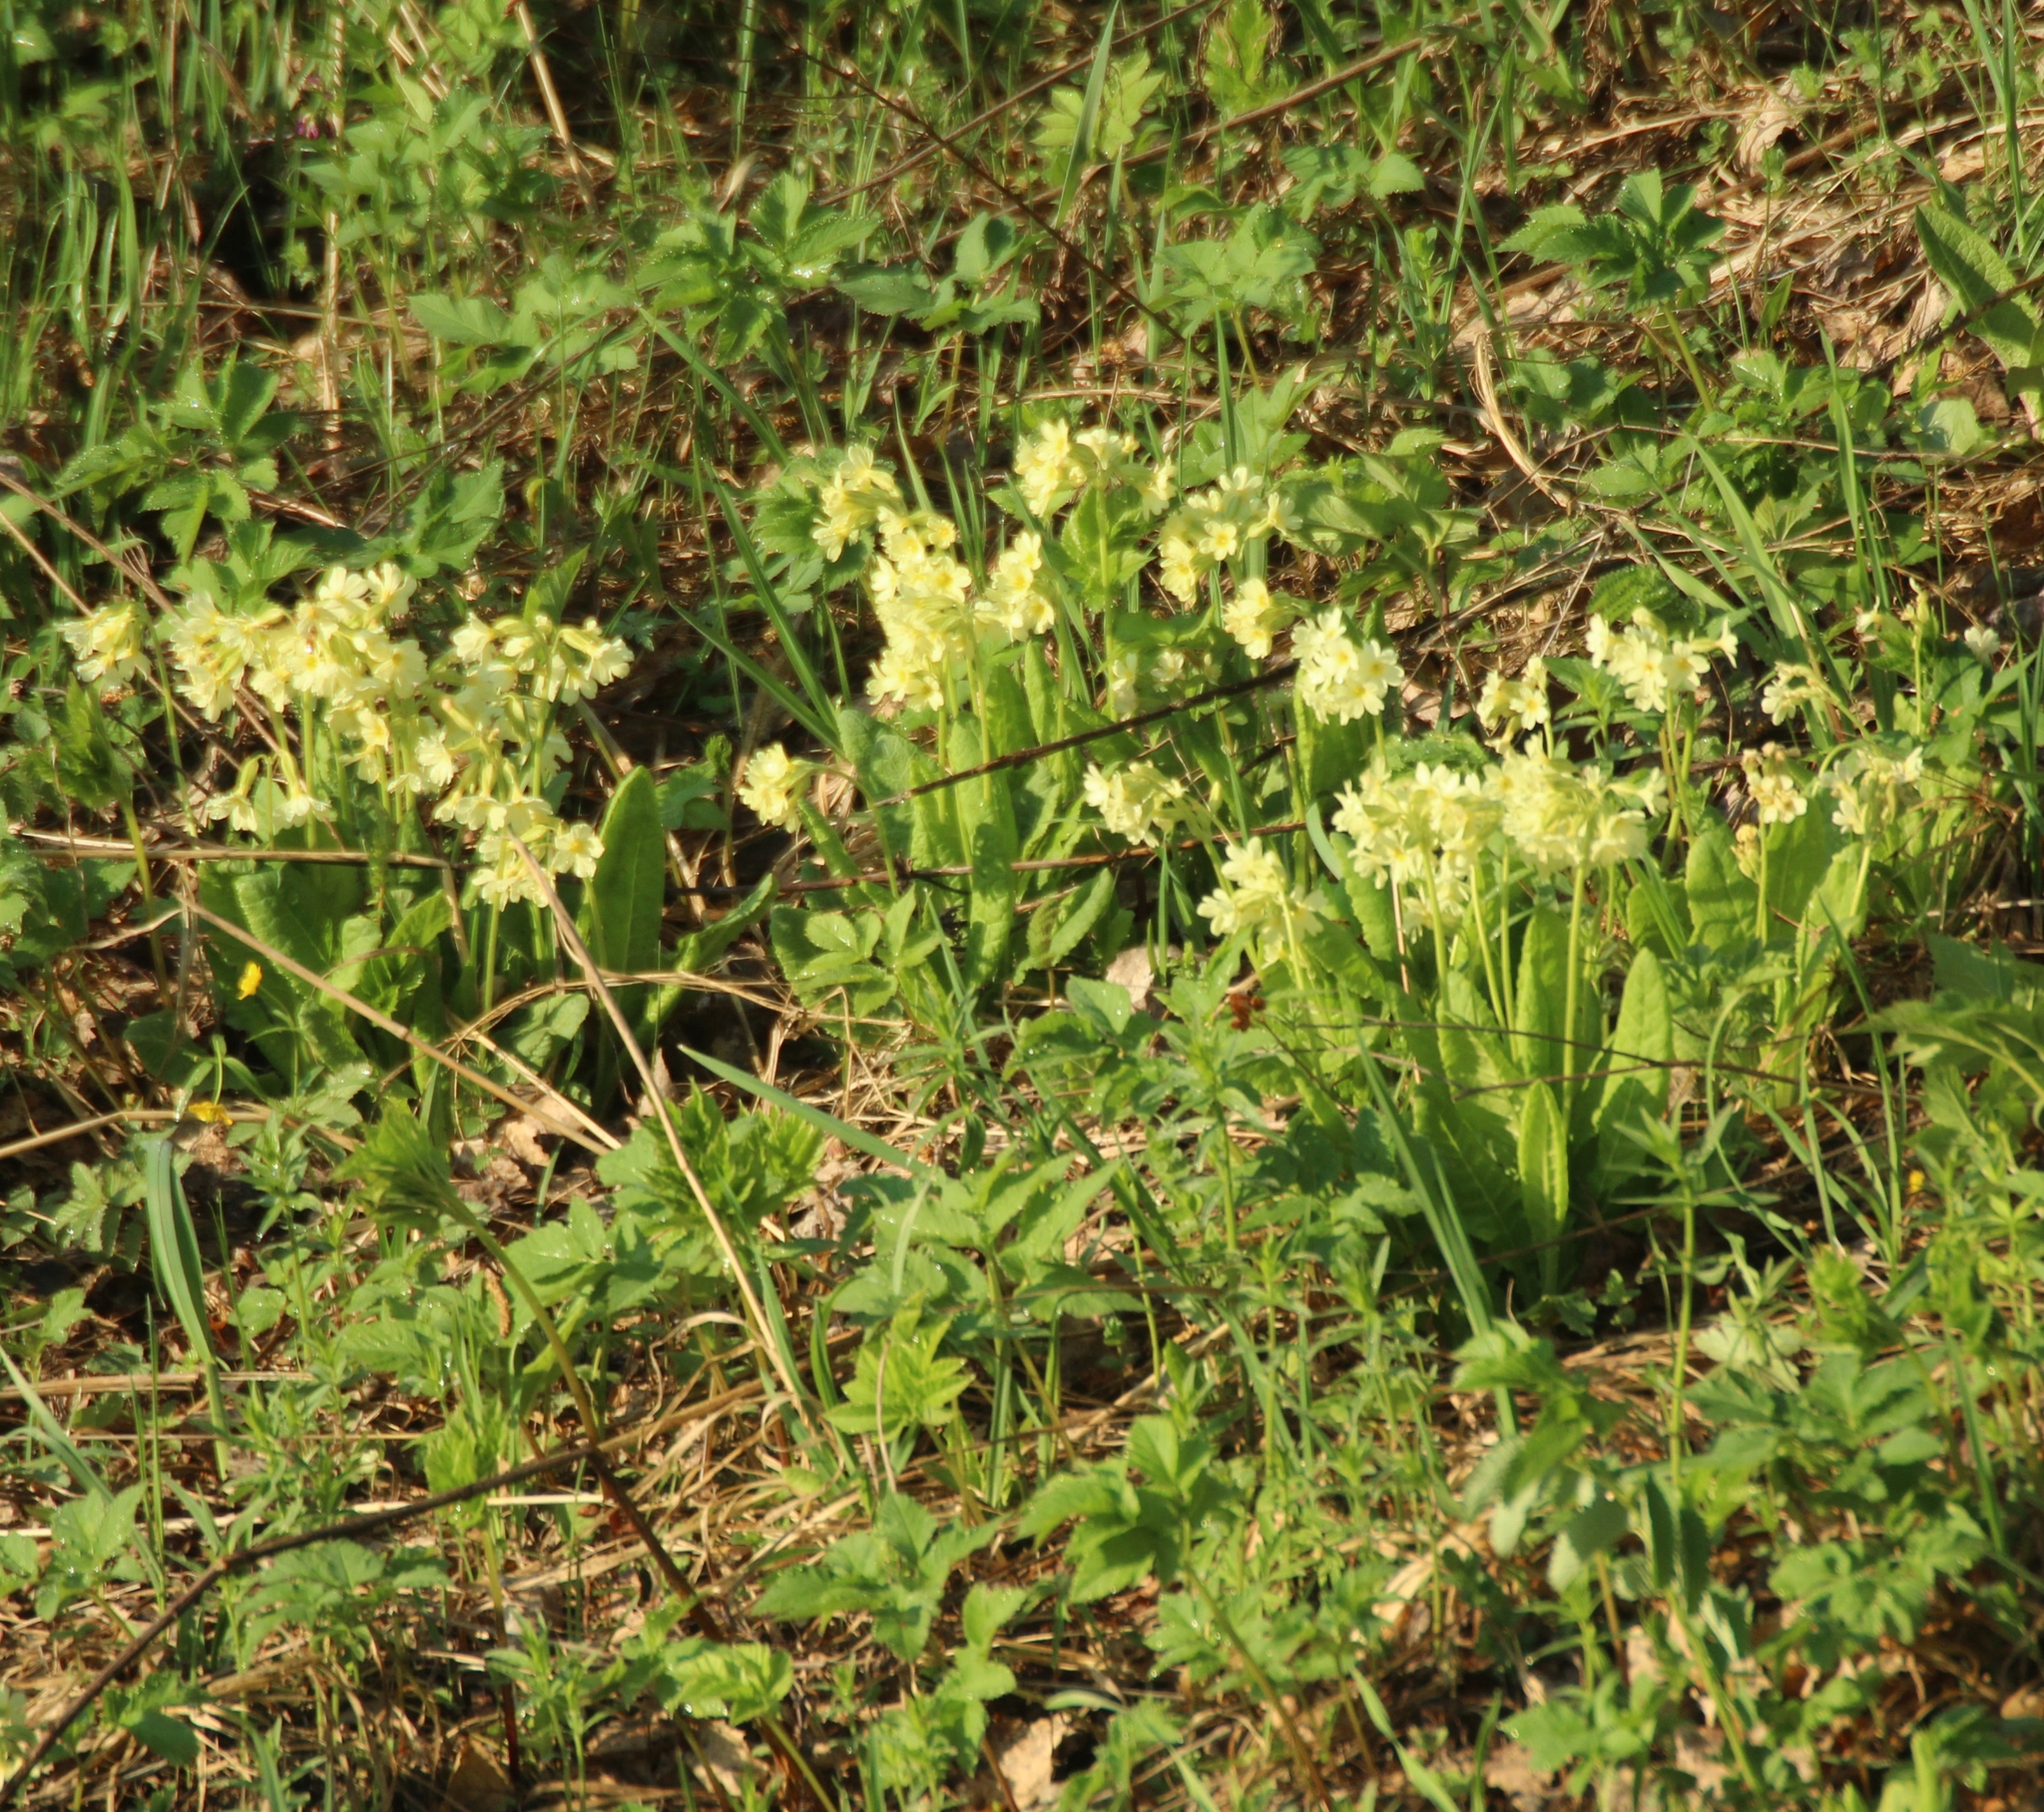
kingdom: Plantae
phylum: Tracheophyta
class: Magnoliopsida
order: Ericales
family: Primulaceae
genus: Primula
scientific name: Primula elatior
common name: Oxlip
